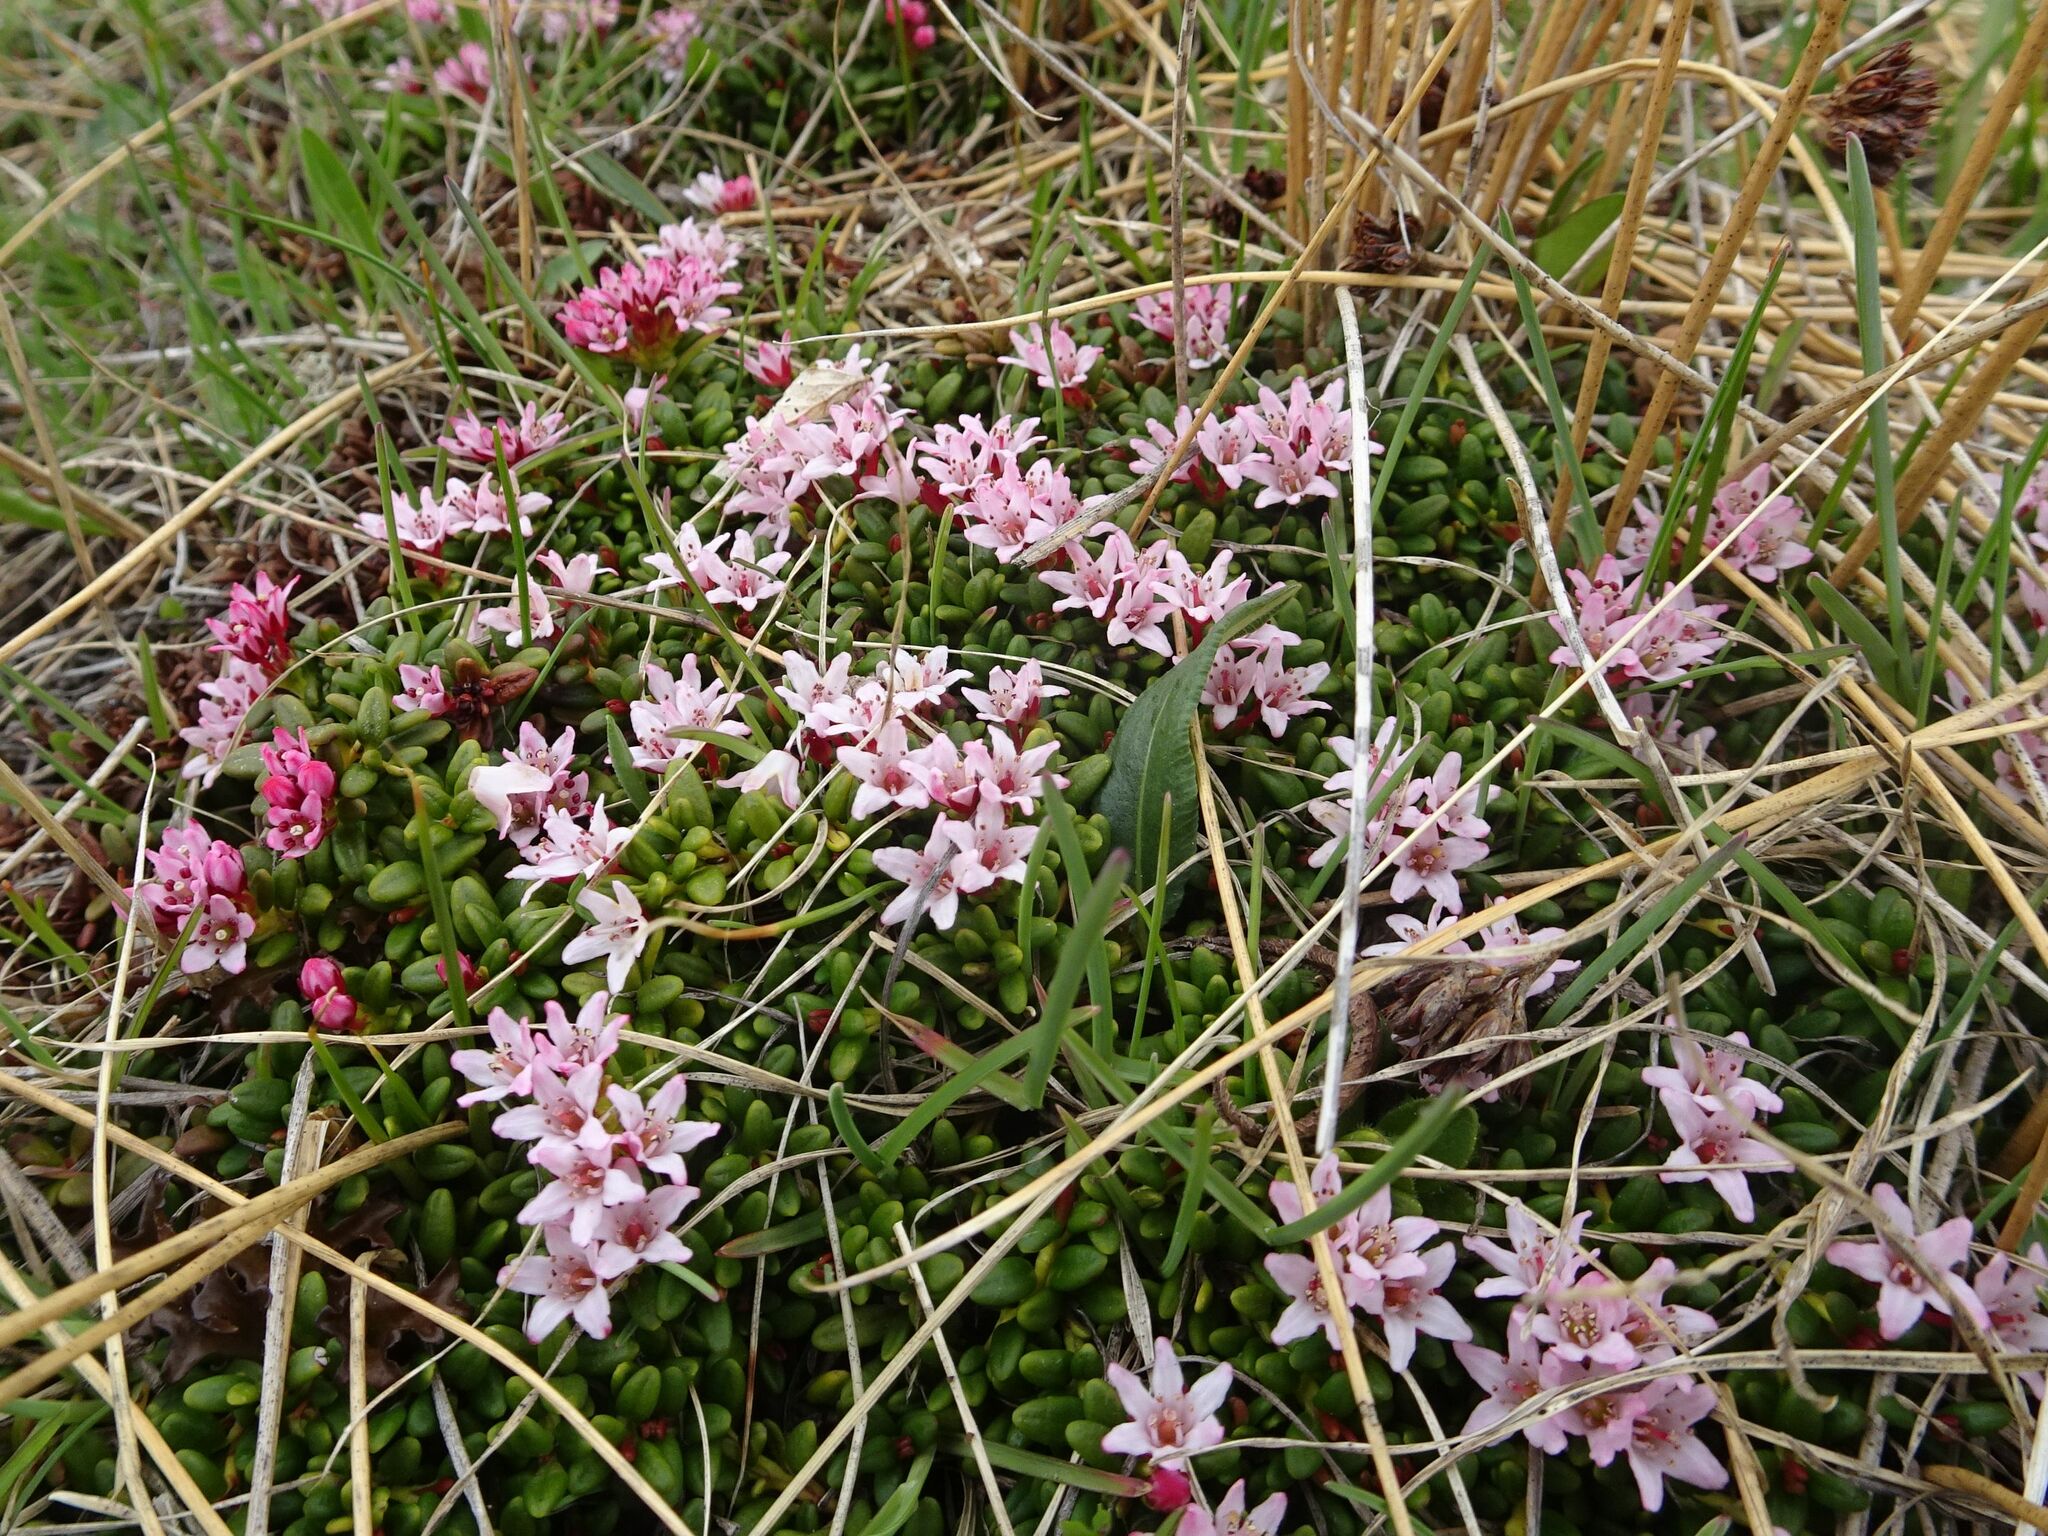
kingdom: Plantae
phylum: Tracheophyta
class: Magnoliopsida
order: Ericales
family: Ericaceae
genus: Kalmia
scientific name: Kalmia procumbens
